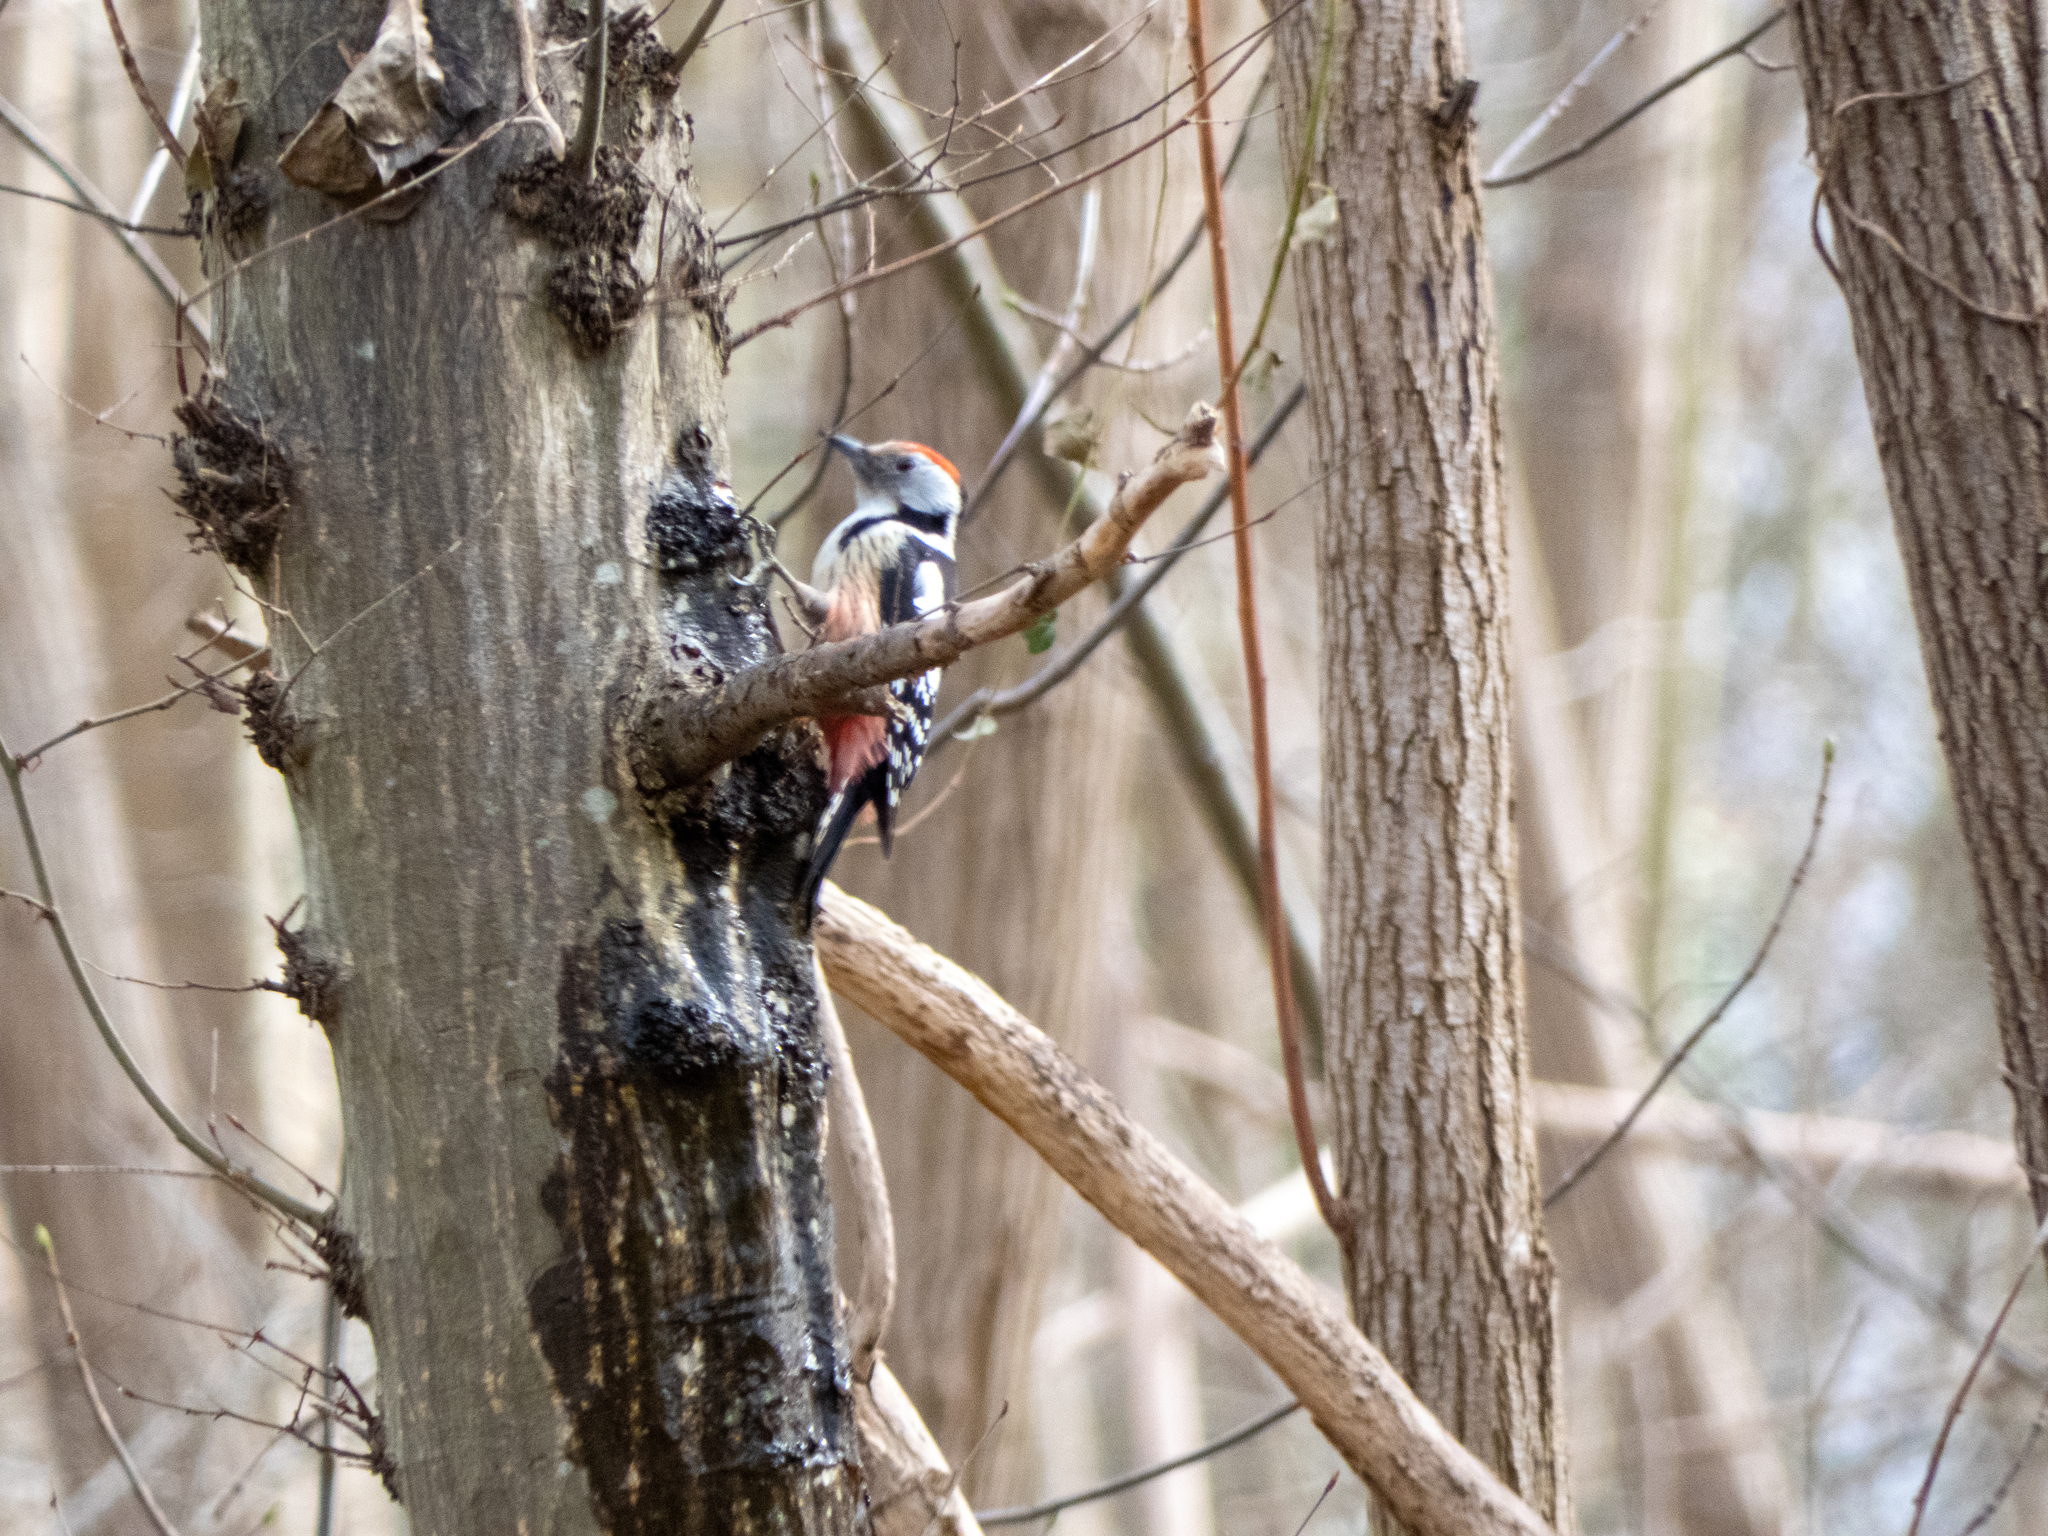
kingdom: Animalia
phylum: Chordata
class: Aves
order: Piciformes
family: Picidae
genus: Dendrocoptes
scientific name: Dendrocoptes medius
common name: Middle spotted woodpecker
